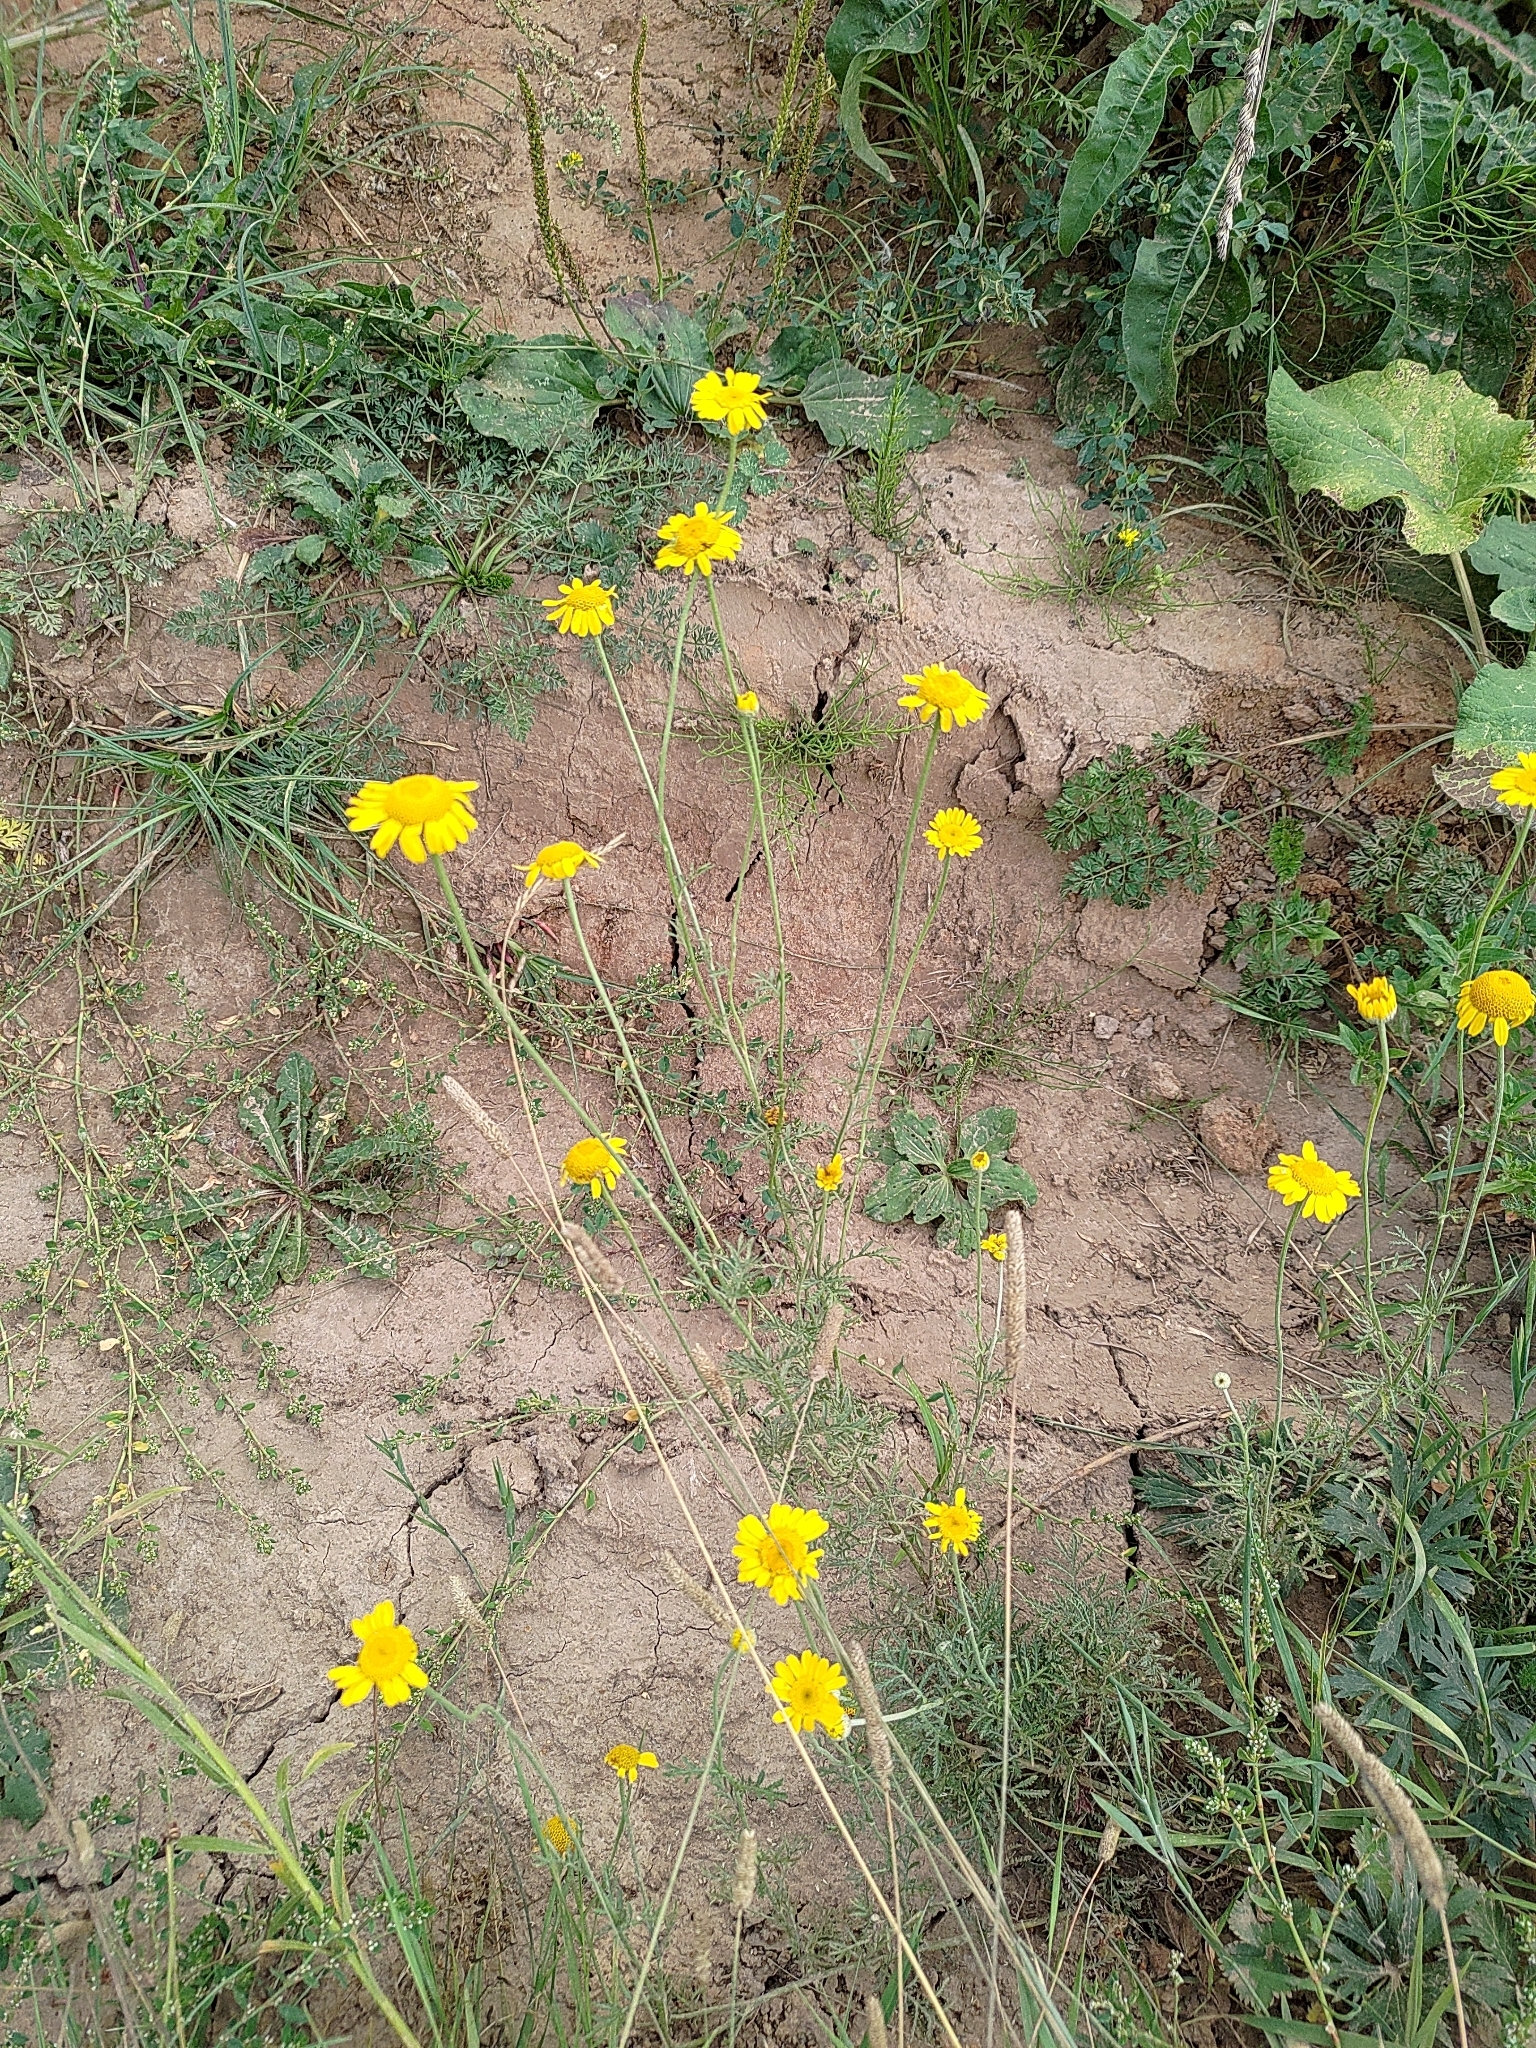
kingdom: Plantae
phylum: Tracheophyta
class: Magnoliopsida
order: Asterales
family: Asteraceae
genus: Cota
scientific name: Cota tinctoria
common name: Golden chamomile
